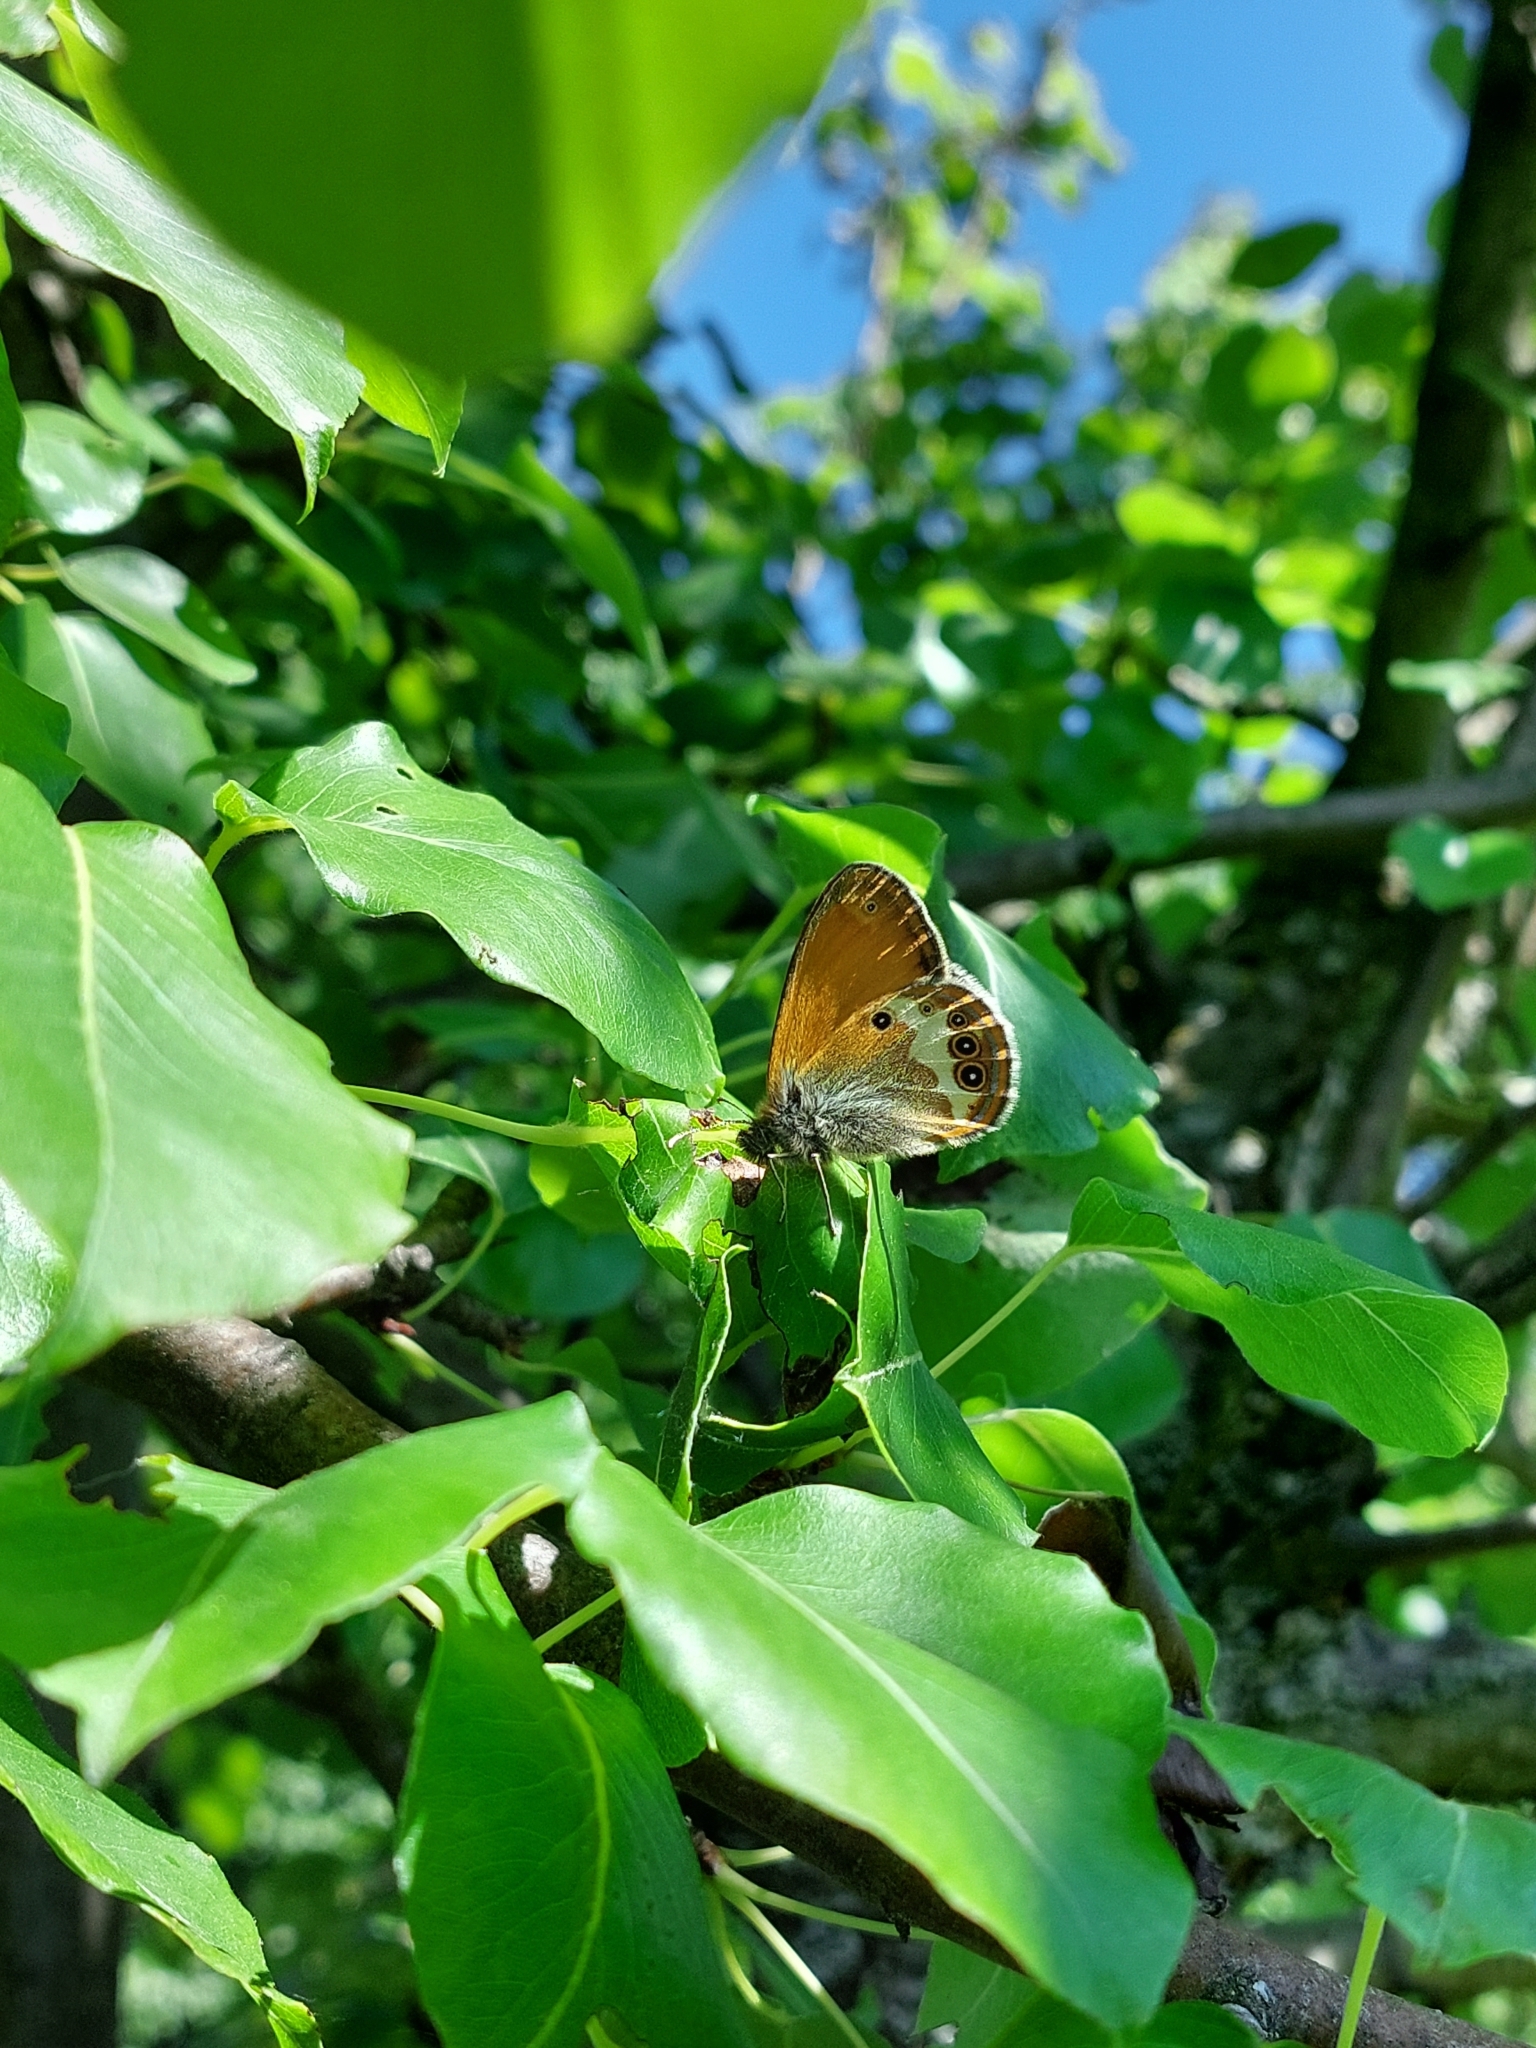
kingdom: Animalia
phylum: Arthropoda
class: Insecta
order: Lepidoptera
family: Nymphalidae
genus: Coenonympha
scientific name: Coenonympha arcania
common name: Pearly heath
